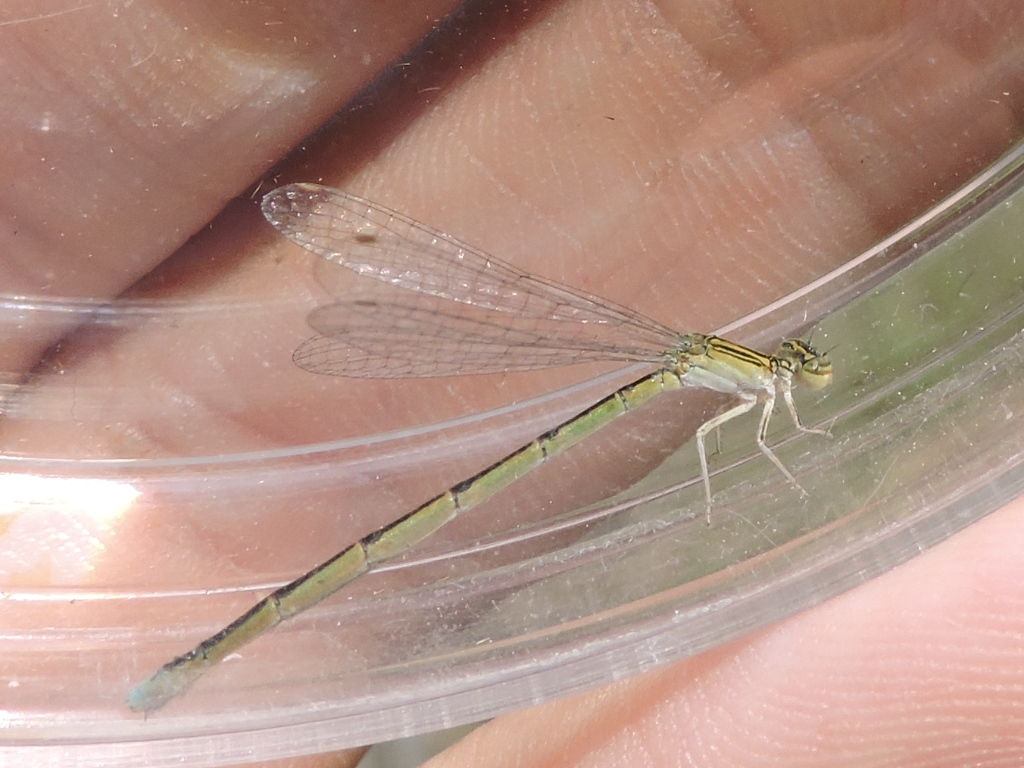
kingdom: Animalia
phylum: Arthropoda
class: Insecta
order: Odonata
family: Coenagrionidae
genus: Enallagma
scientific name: Enallagma basidens
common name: Double-striped bluet
